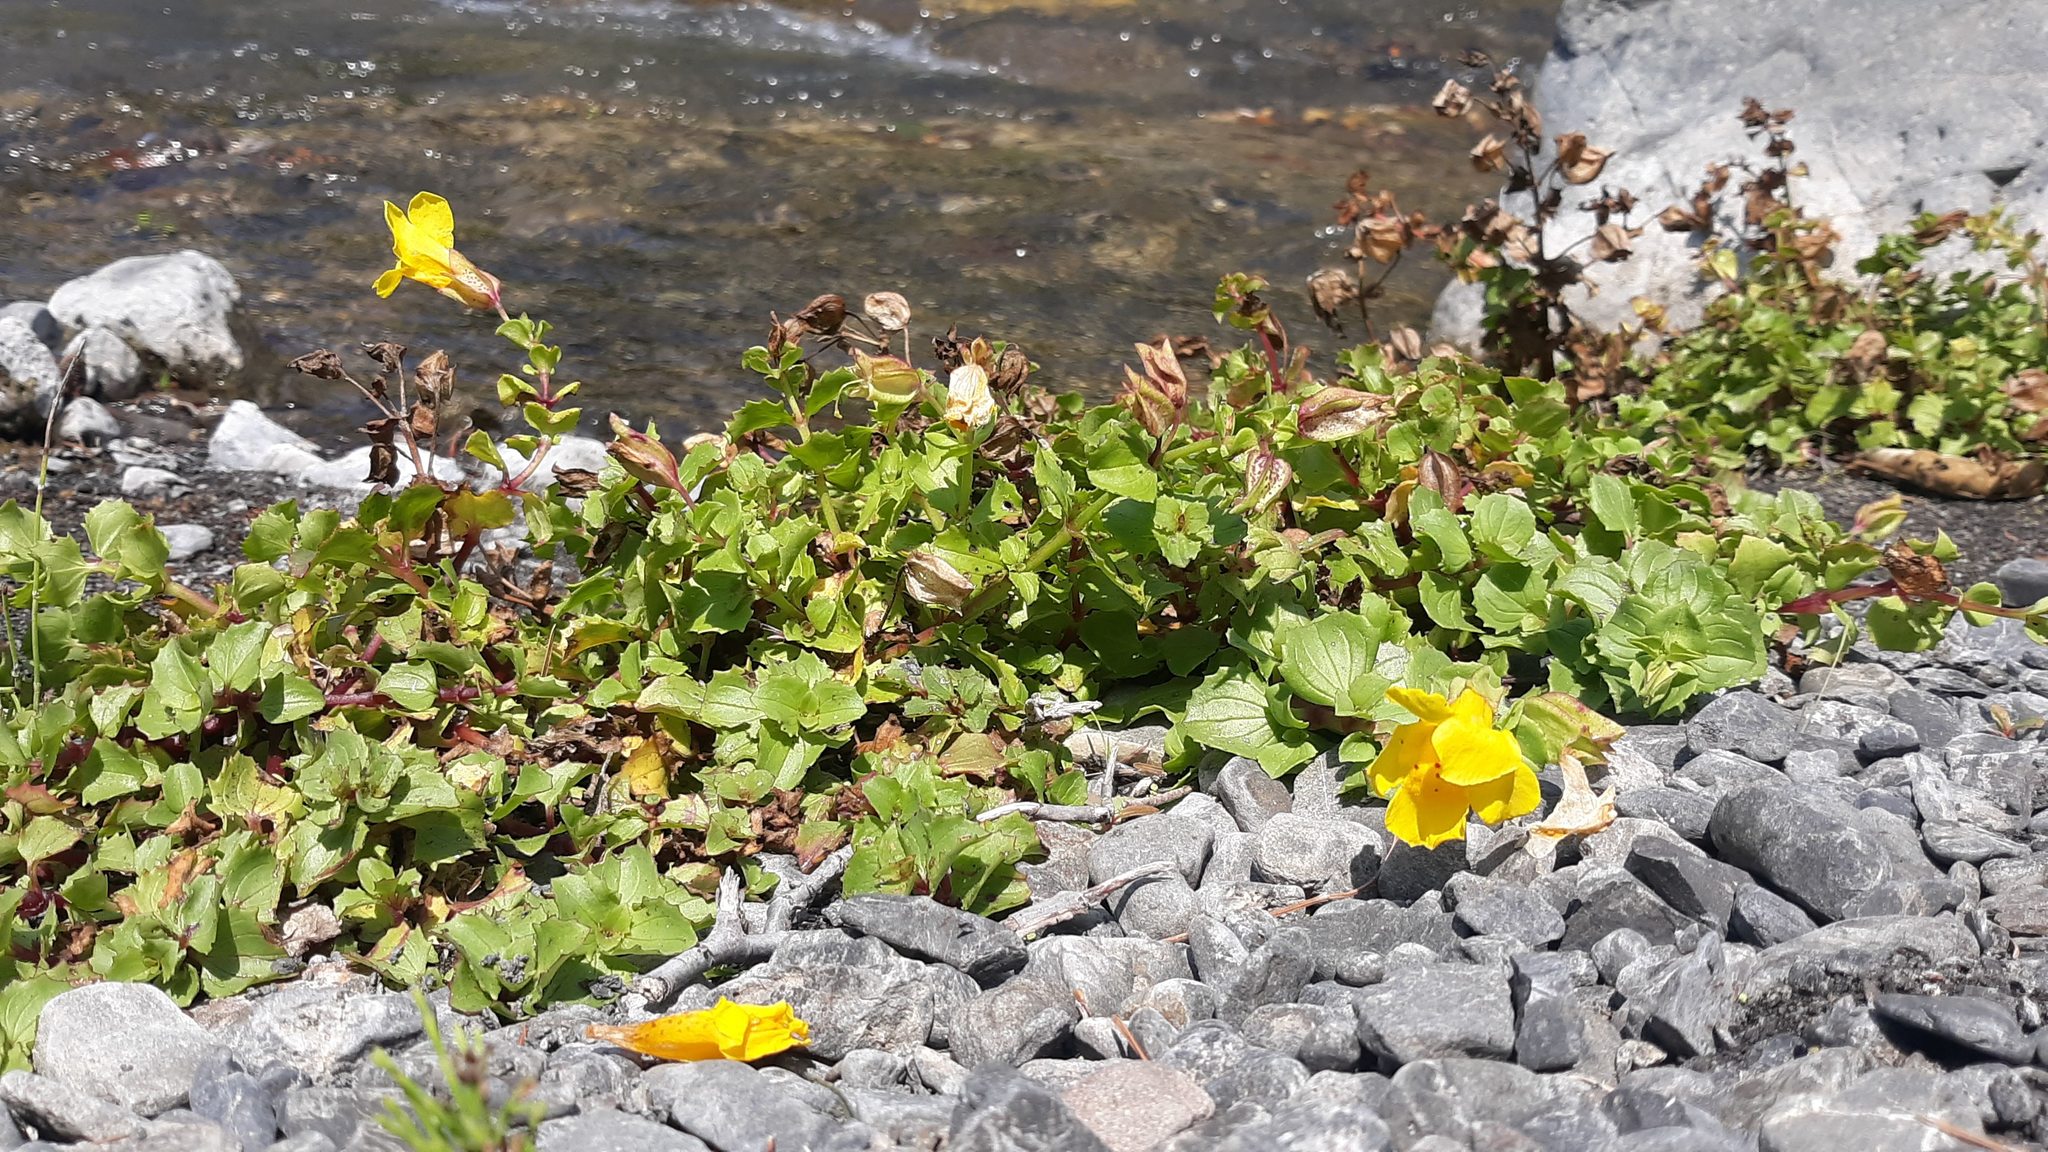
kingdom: Plantae
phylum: Tracheophyta
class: Magnoliopsida
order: Lamiales
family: Phrymaceae
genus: Erythranthe
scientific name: Erythranthe grandis
